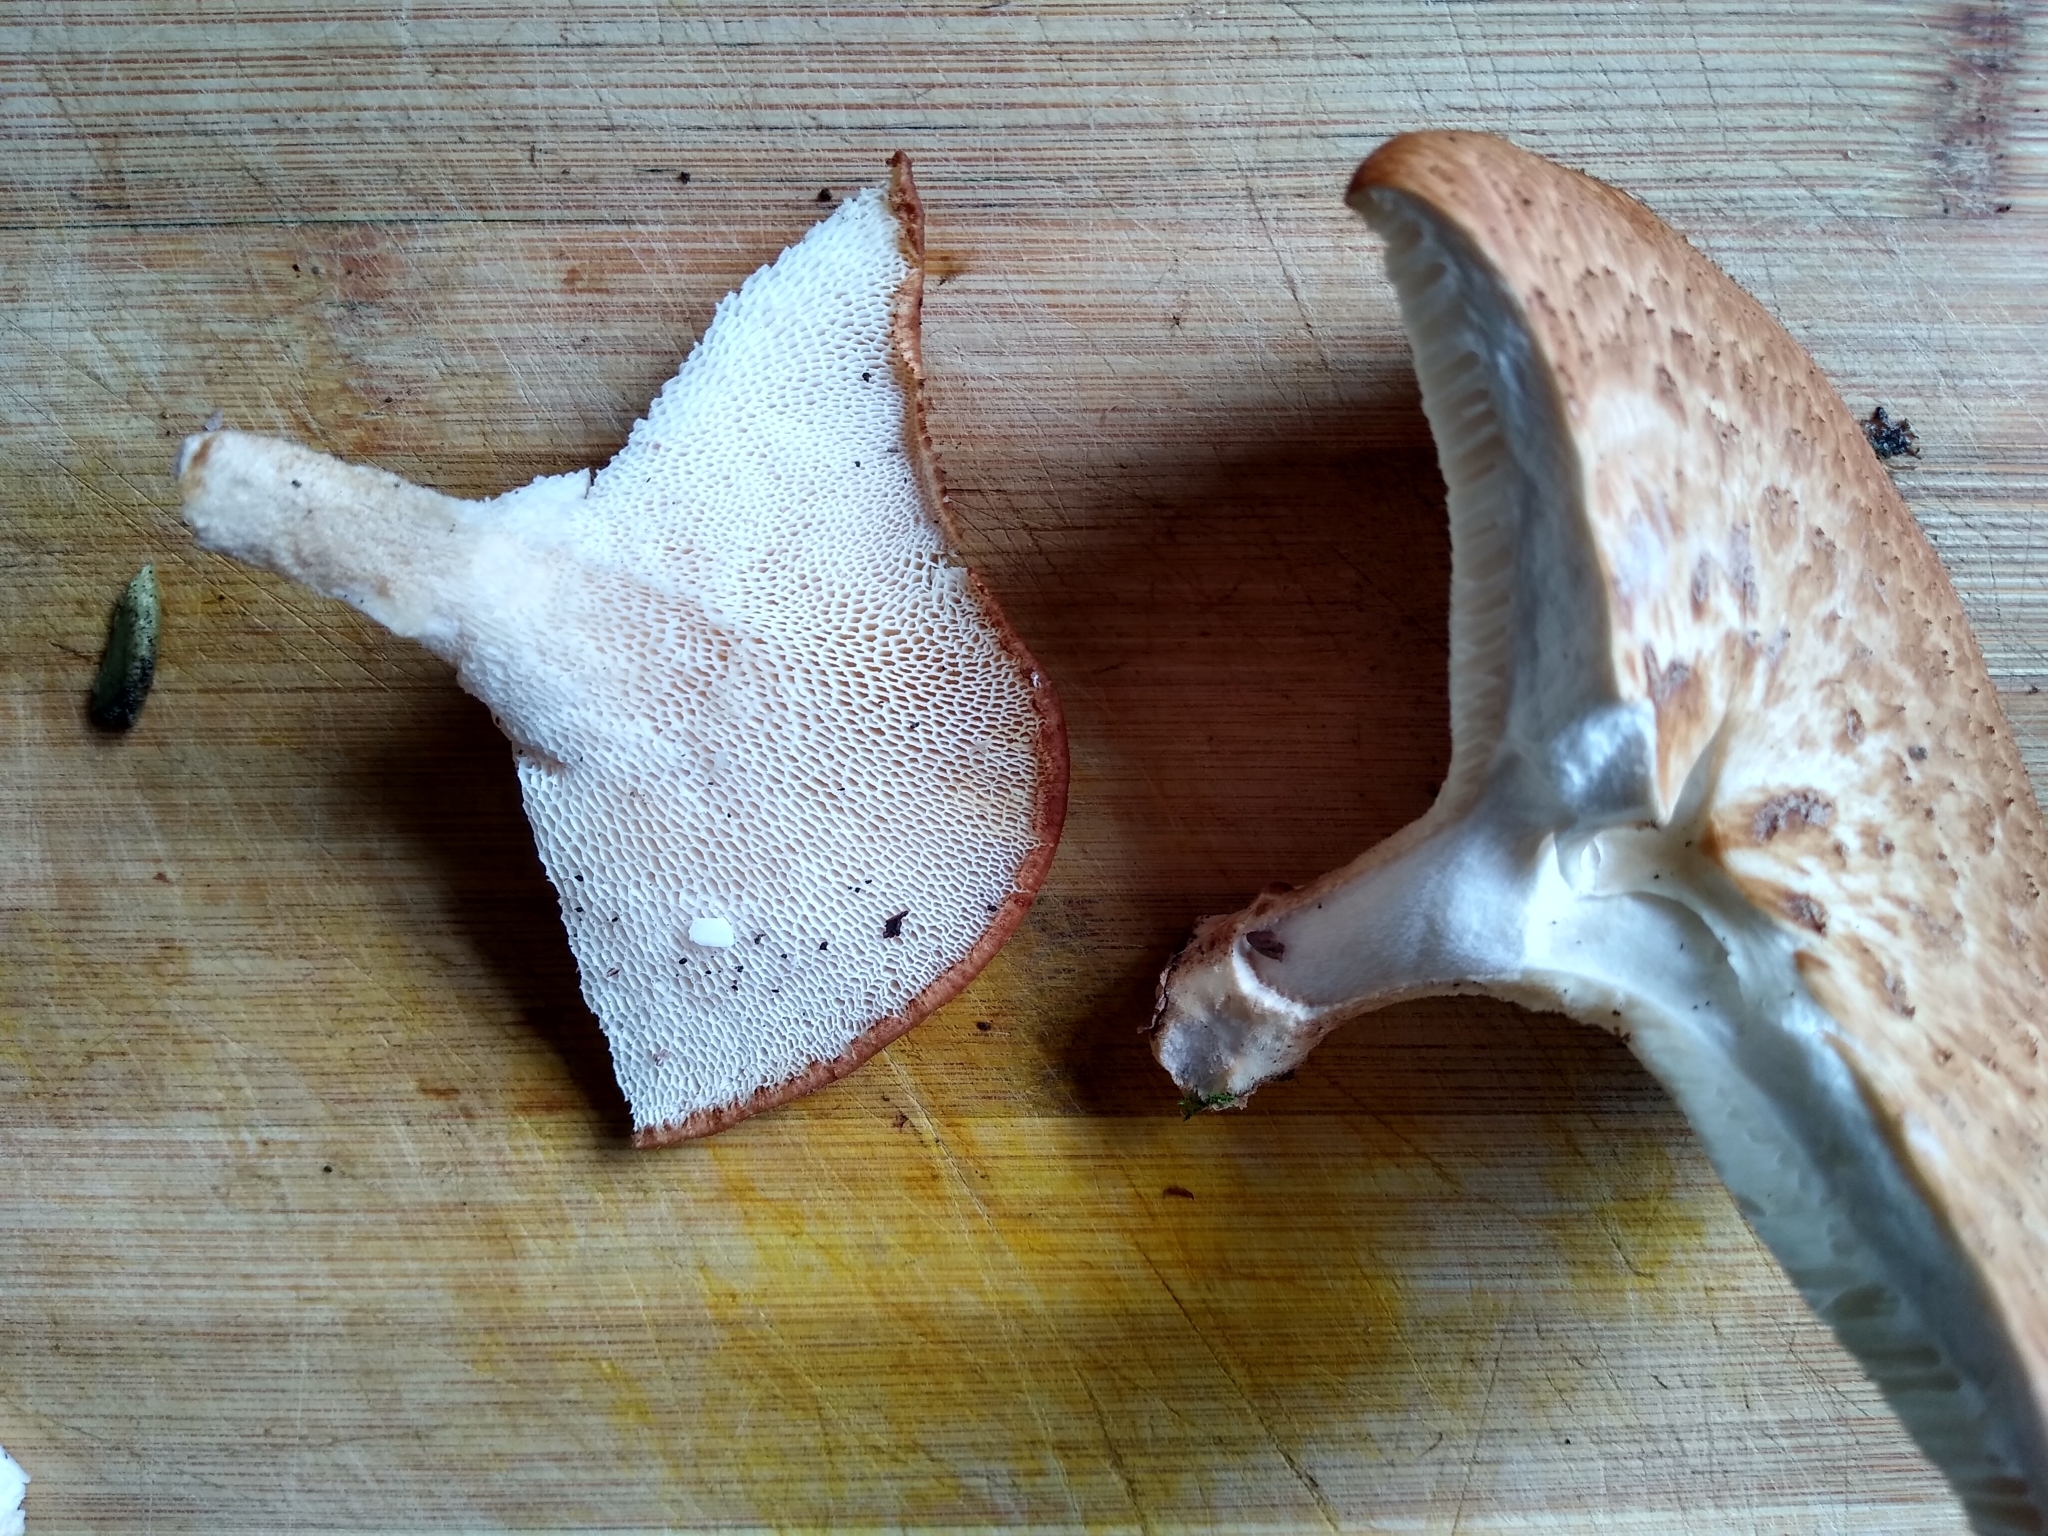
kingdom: Fungi
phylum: Basidiomycota
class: Agaricomycetes
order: Polyporales
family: Polyporaceae
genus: Cerioporus
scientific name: Cerioporus squamosus
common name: Dryad's saddle
